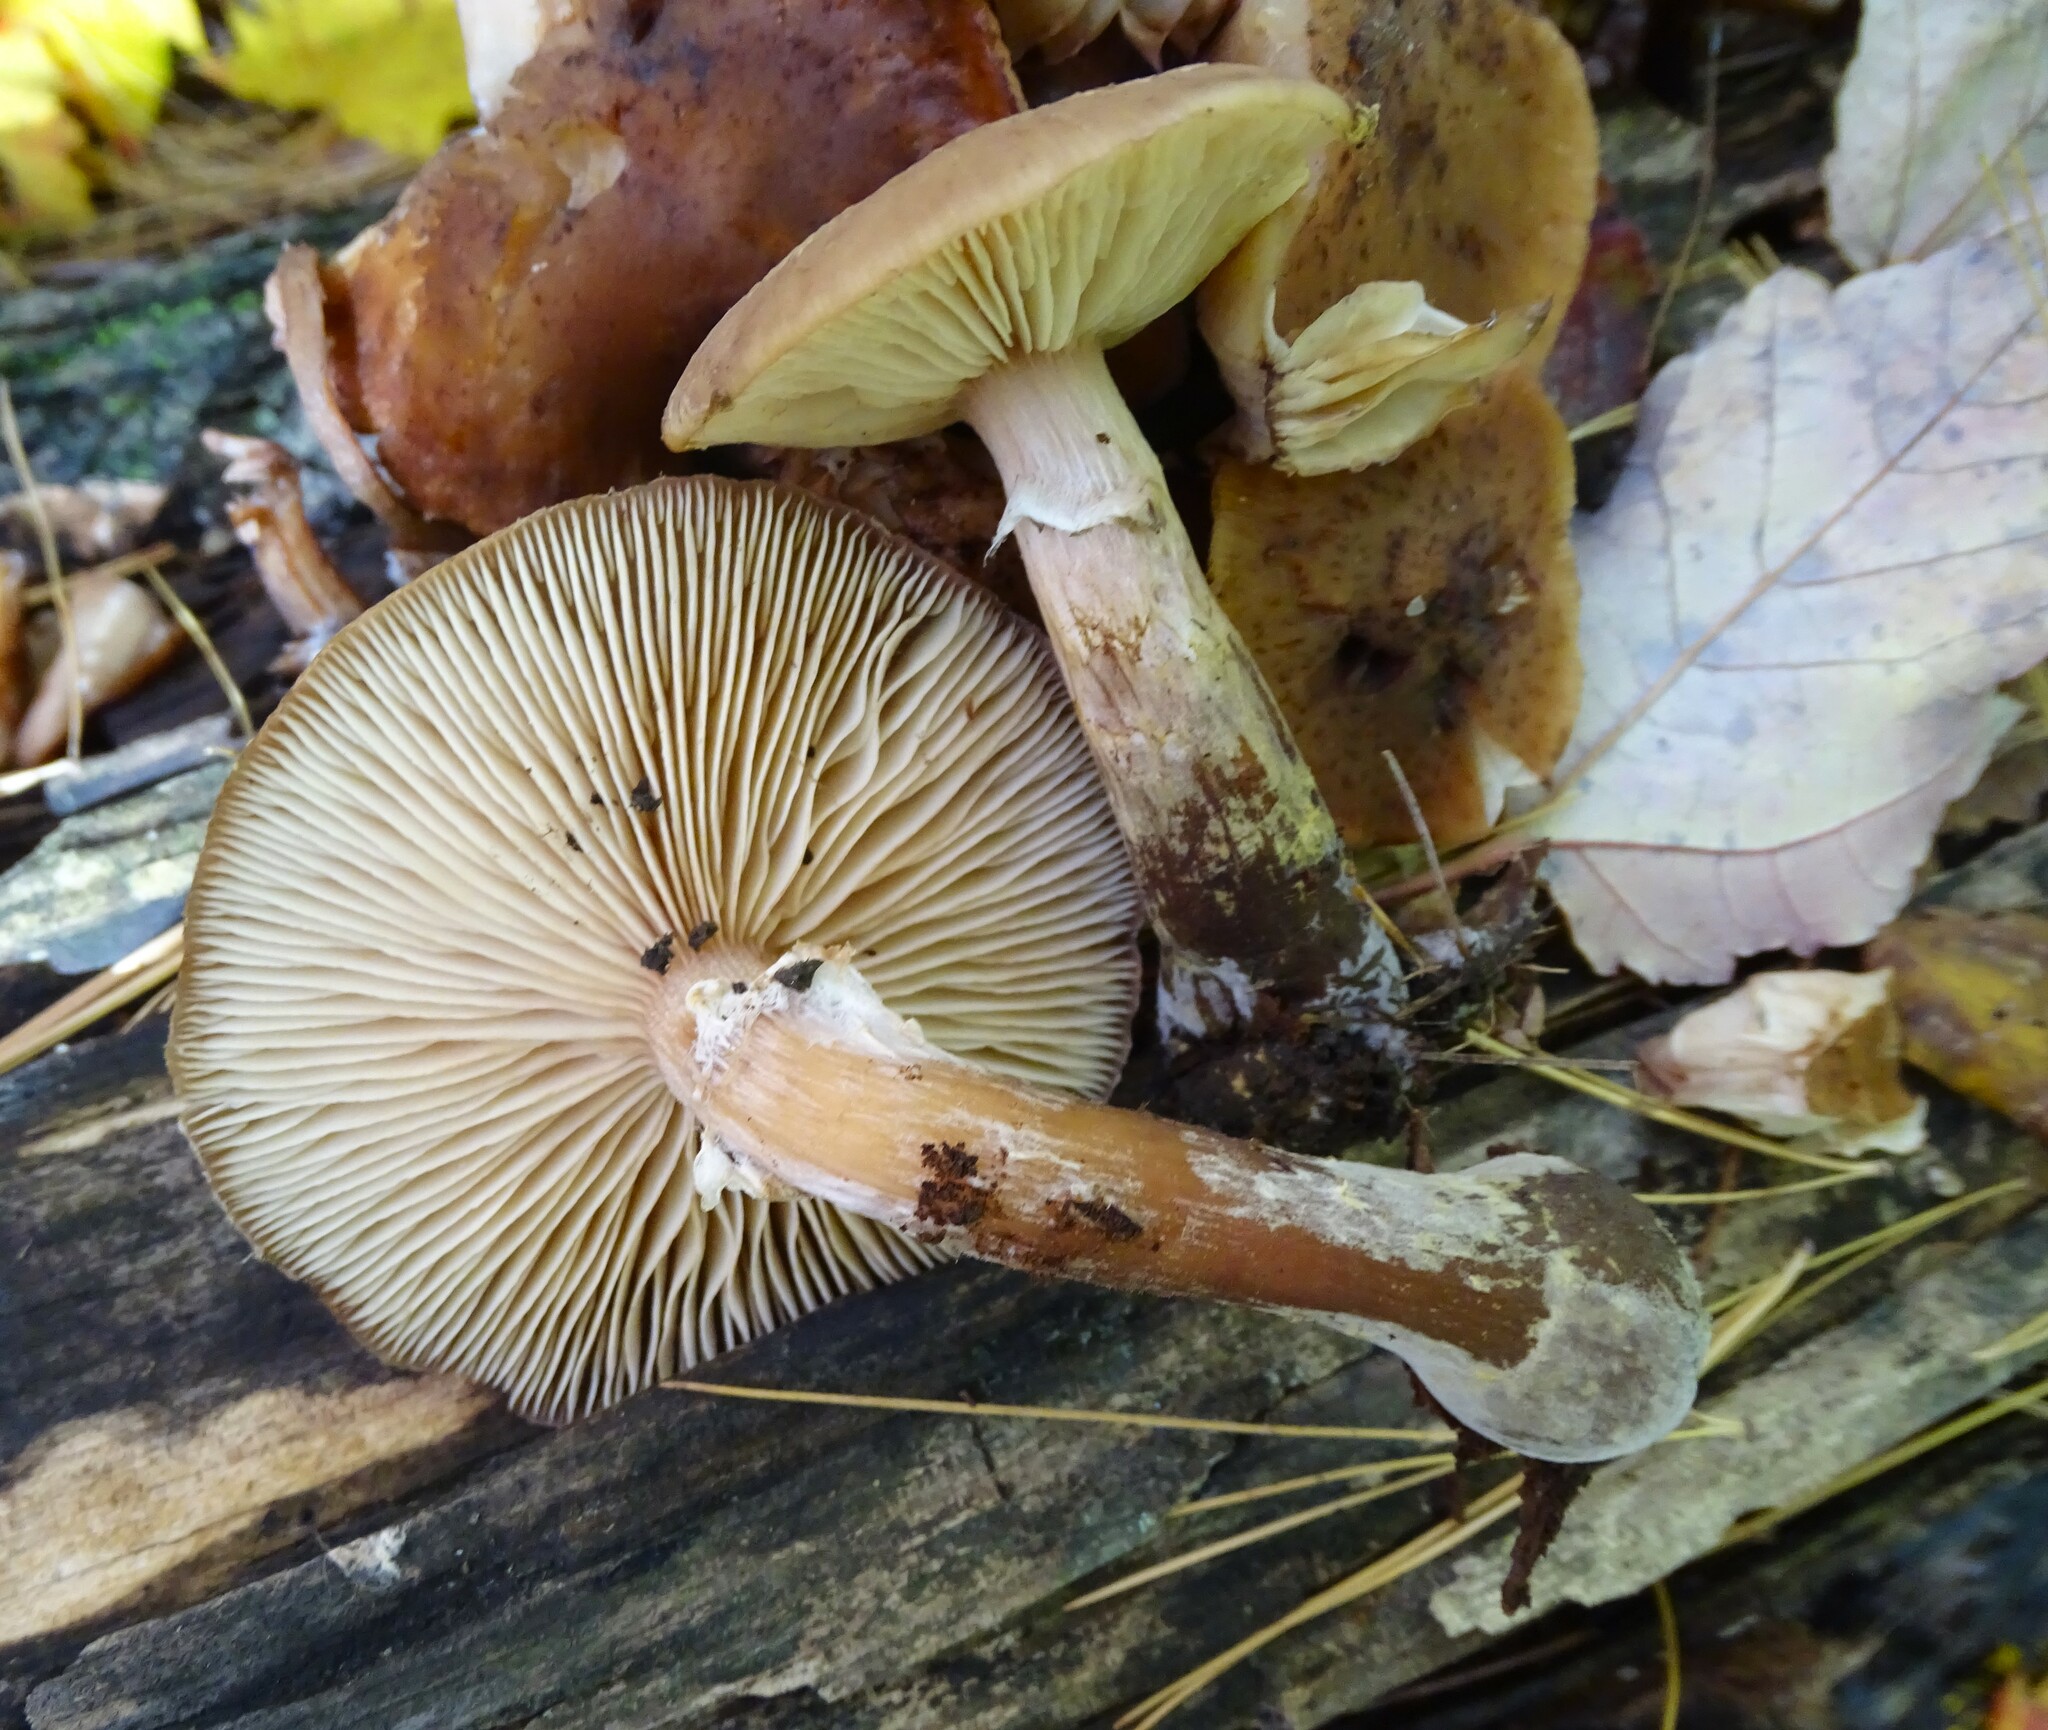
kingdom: Fungi
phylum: Basidiomycota
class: Agaricomycetes
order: Agaricales
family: Physalacriaceae
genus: Armillaria
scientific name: Armillaria gallica
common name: Bulbous honey fungus
